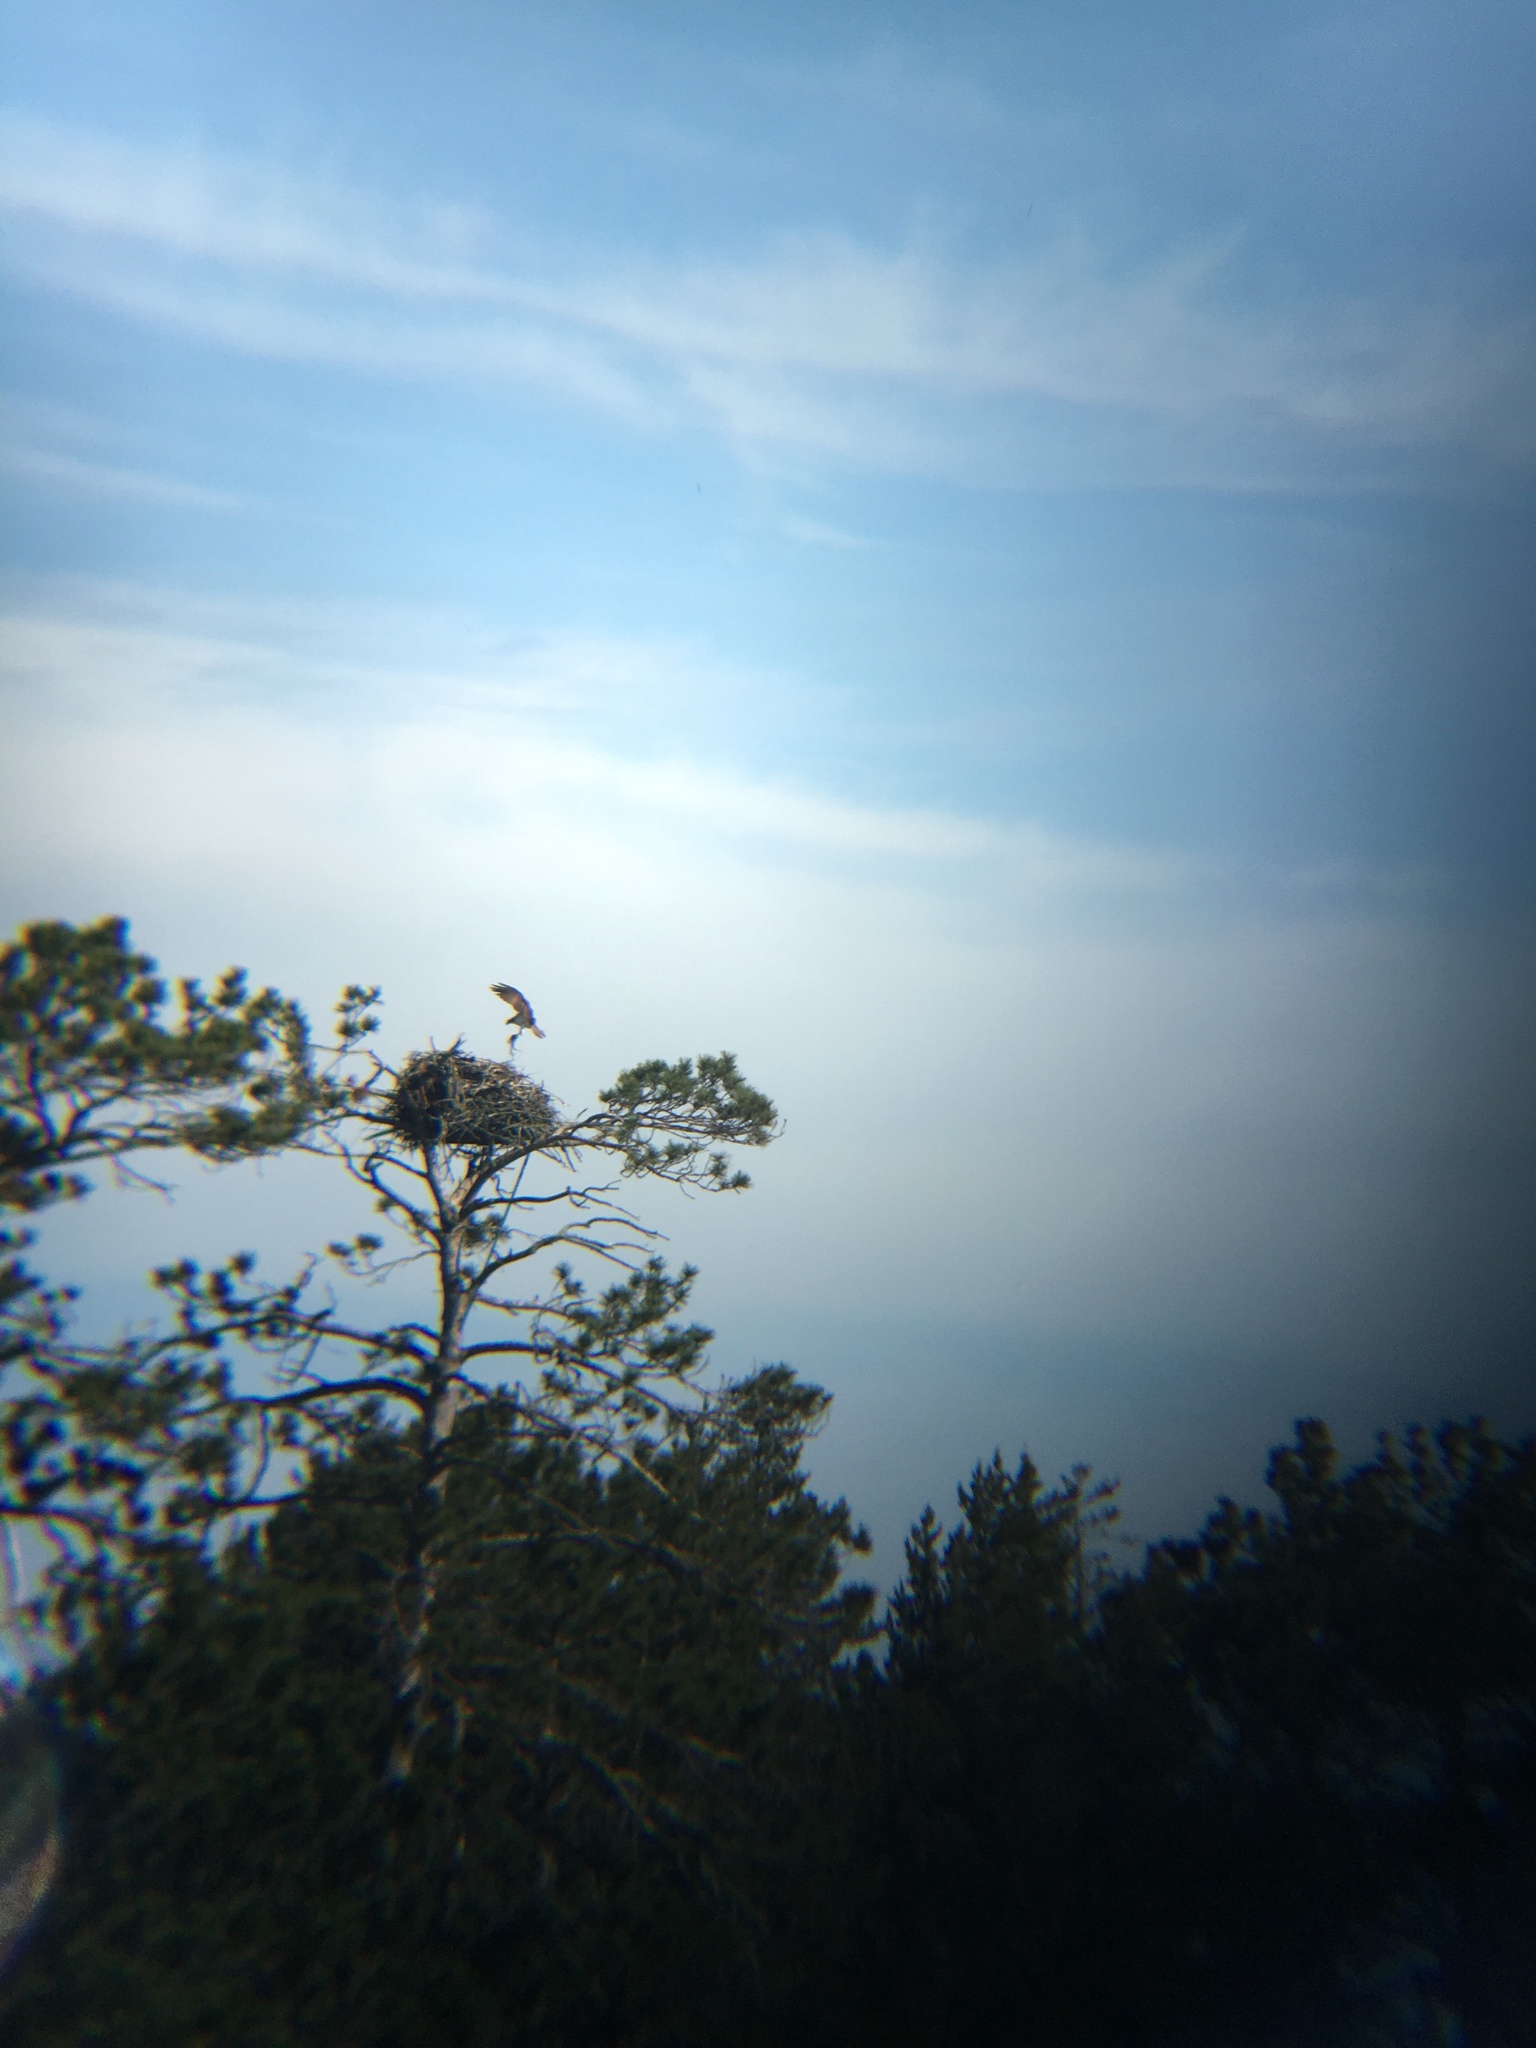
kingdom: Animalia
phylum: Chordata
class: Aves
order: Accipitriformes
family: Pandionidae
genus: Pandion
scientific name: Pandion haliaetus
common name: Osprey
